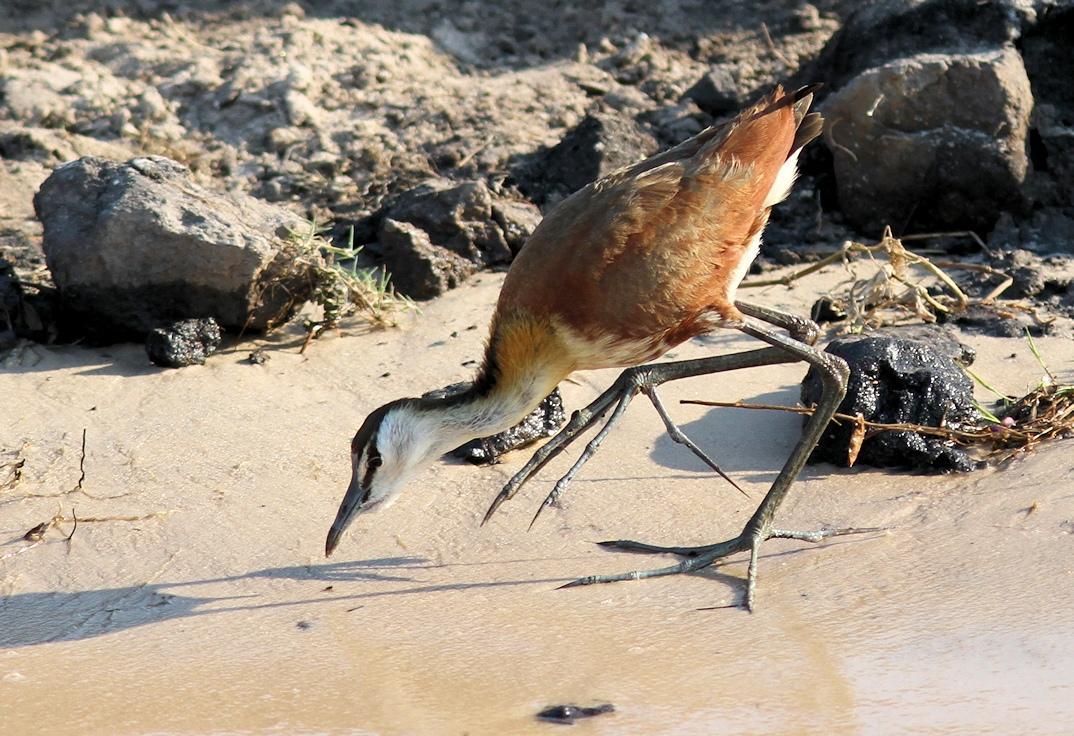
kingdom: Animalia
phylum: Chordata
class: Aves
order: Charadriiformes
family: Jacanidae
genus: Actophilornis
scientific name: Actophilornis africanus
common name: African jacana
